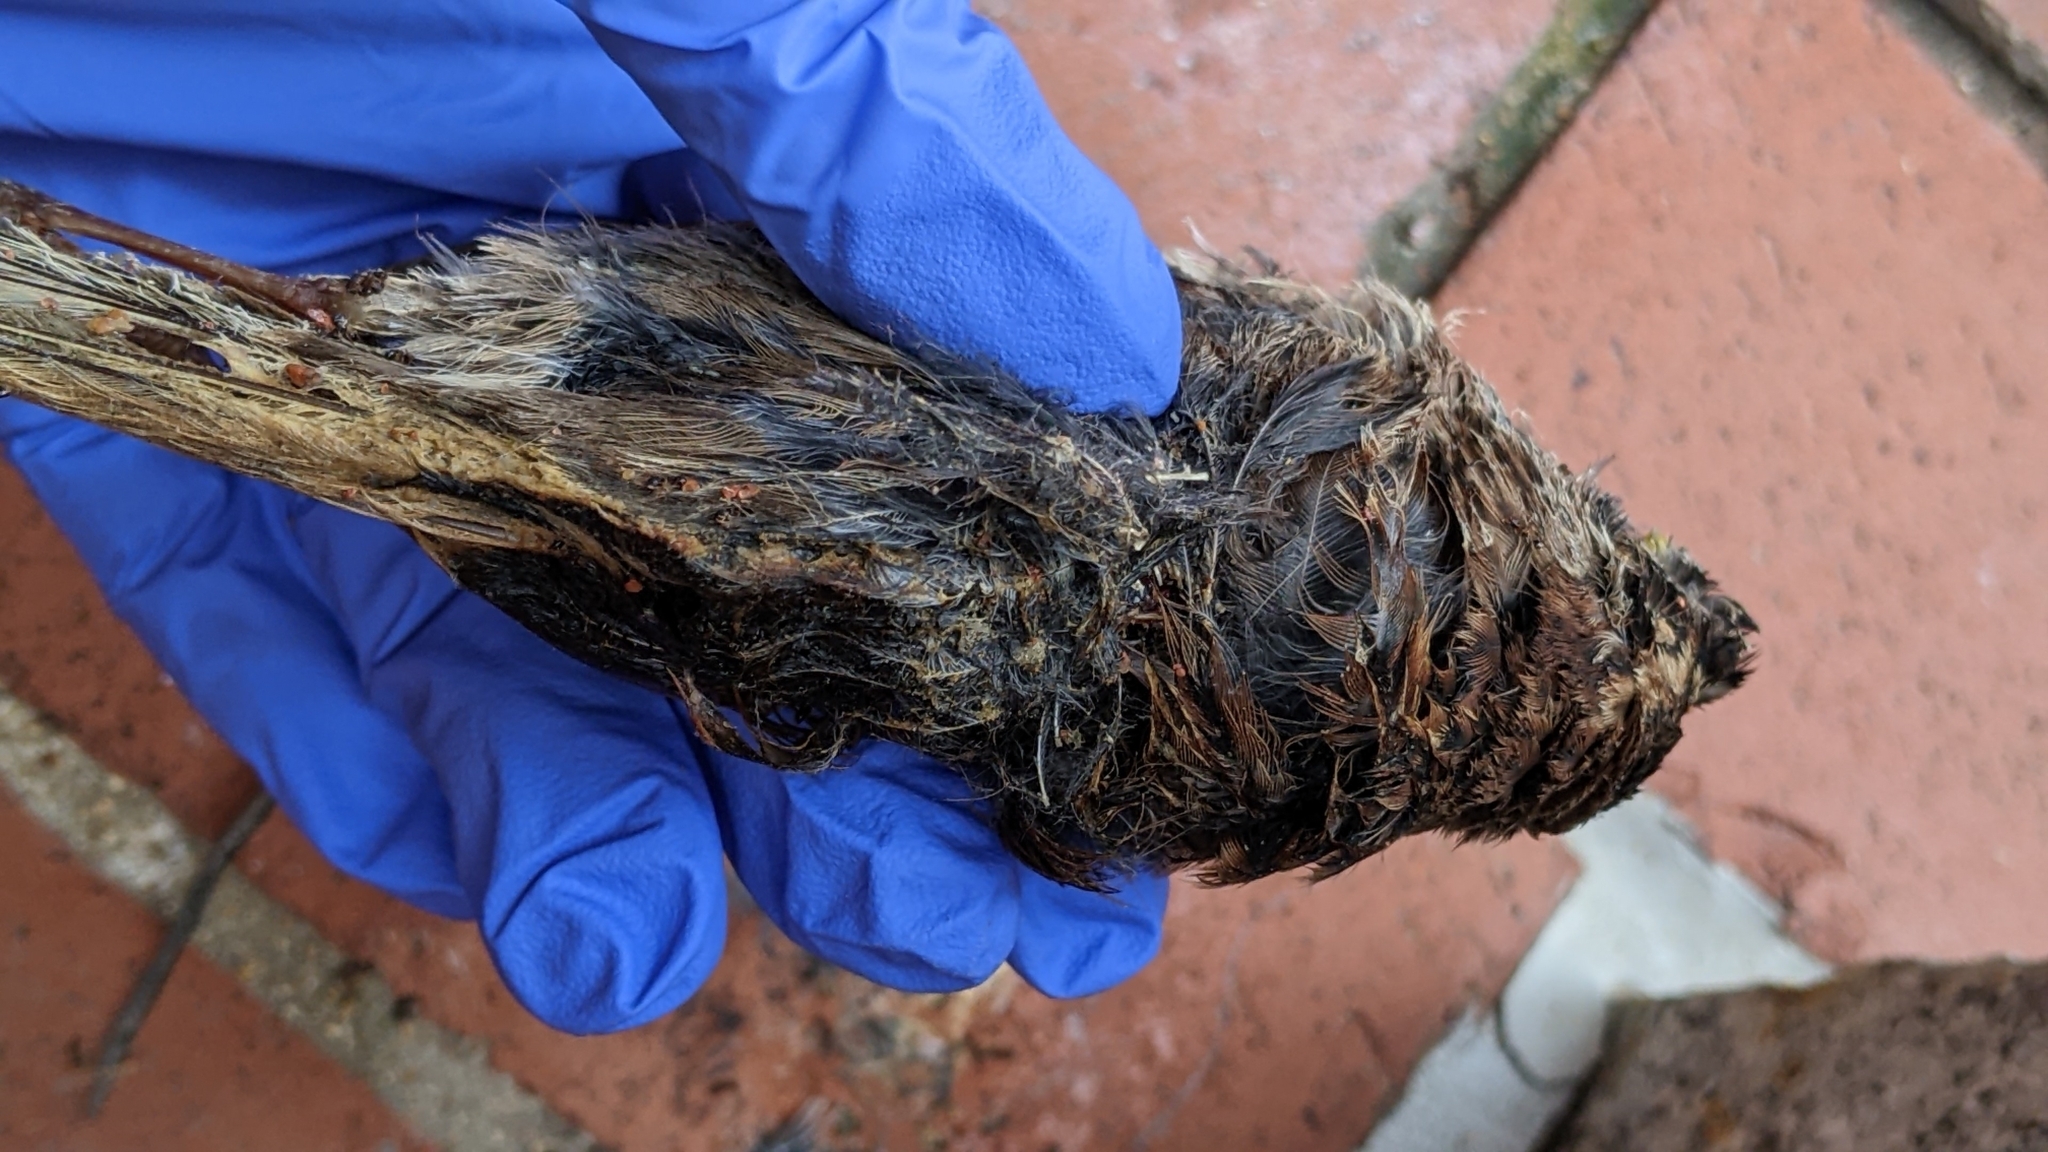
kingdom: Animalia
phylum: Chordata
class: Aves
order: Passeriformes
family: Passerellidae
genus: Zonotrichia
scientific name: Zonotrichia albicollis
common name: White-throated sparrow
